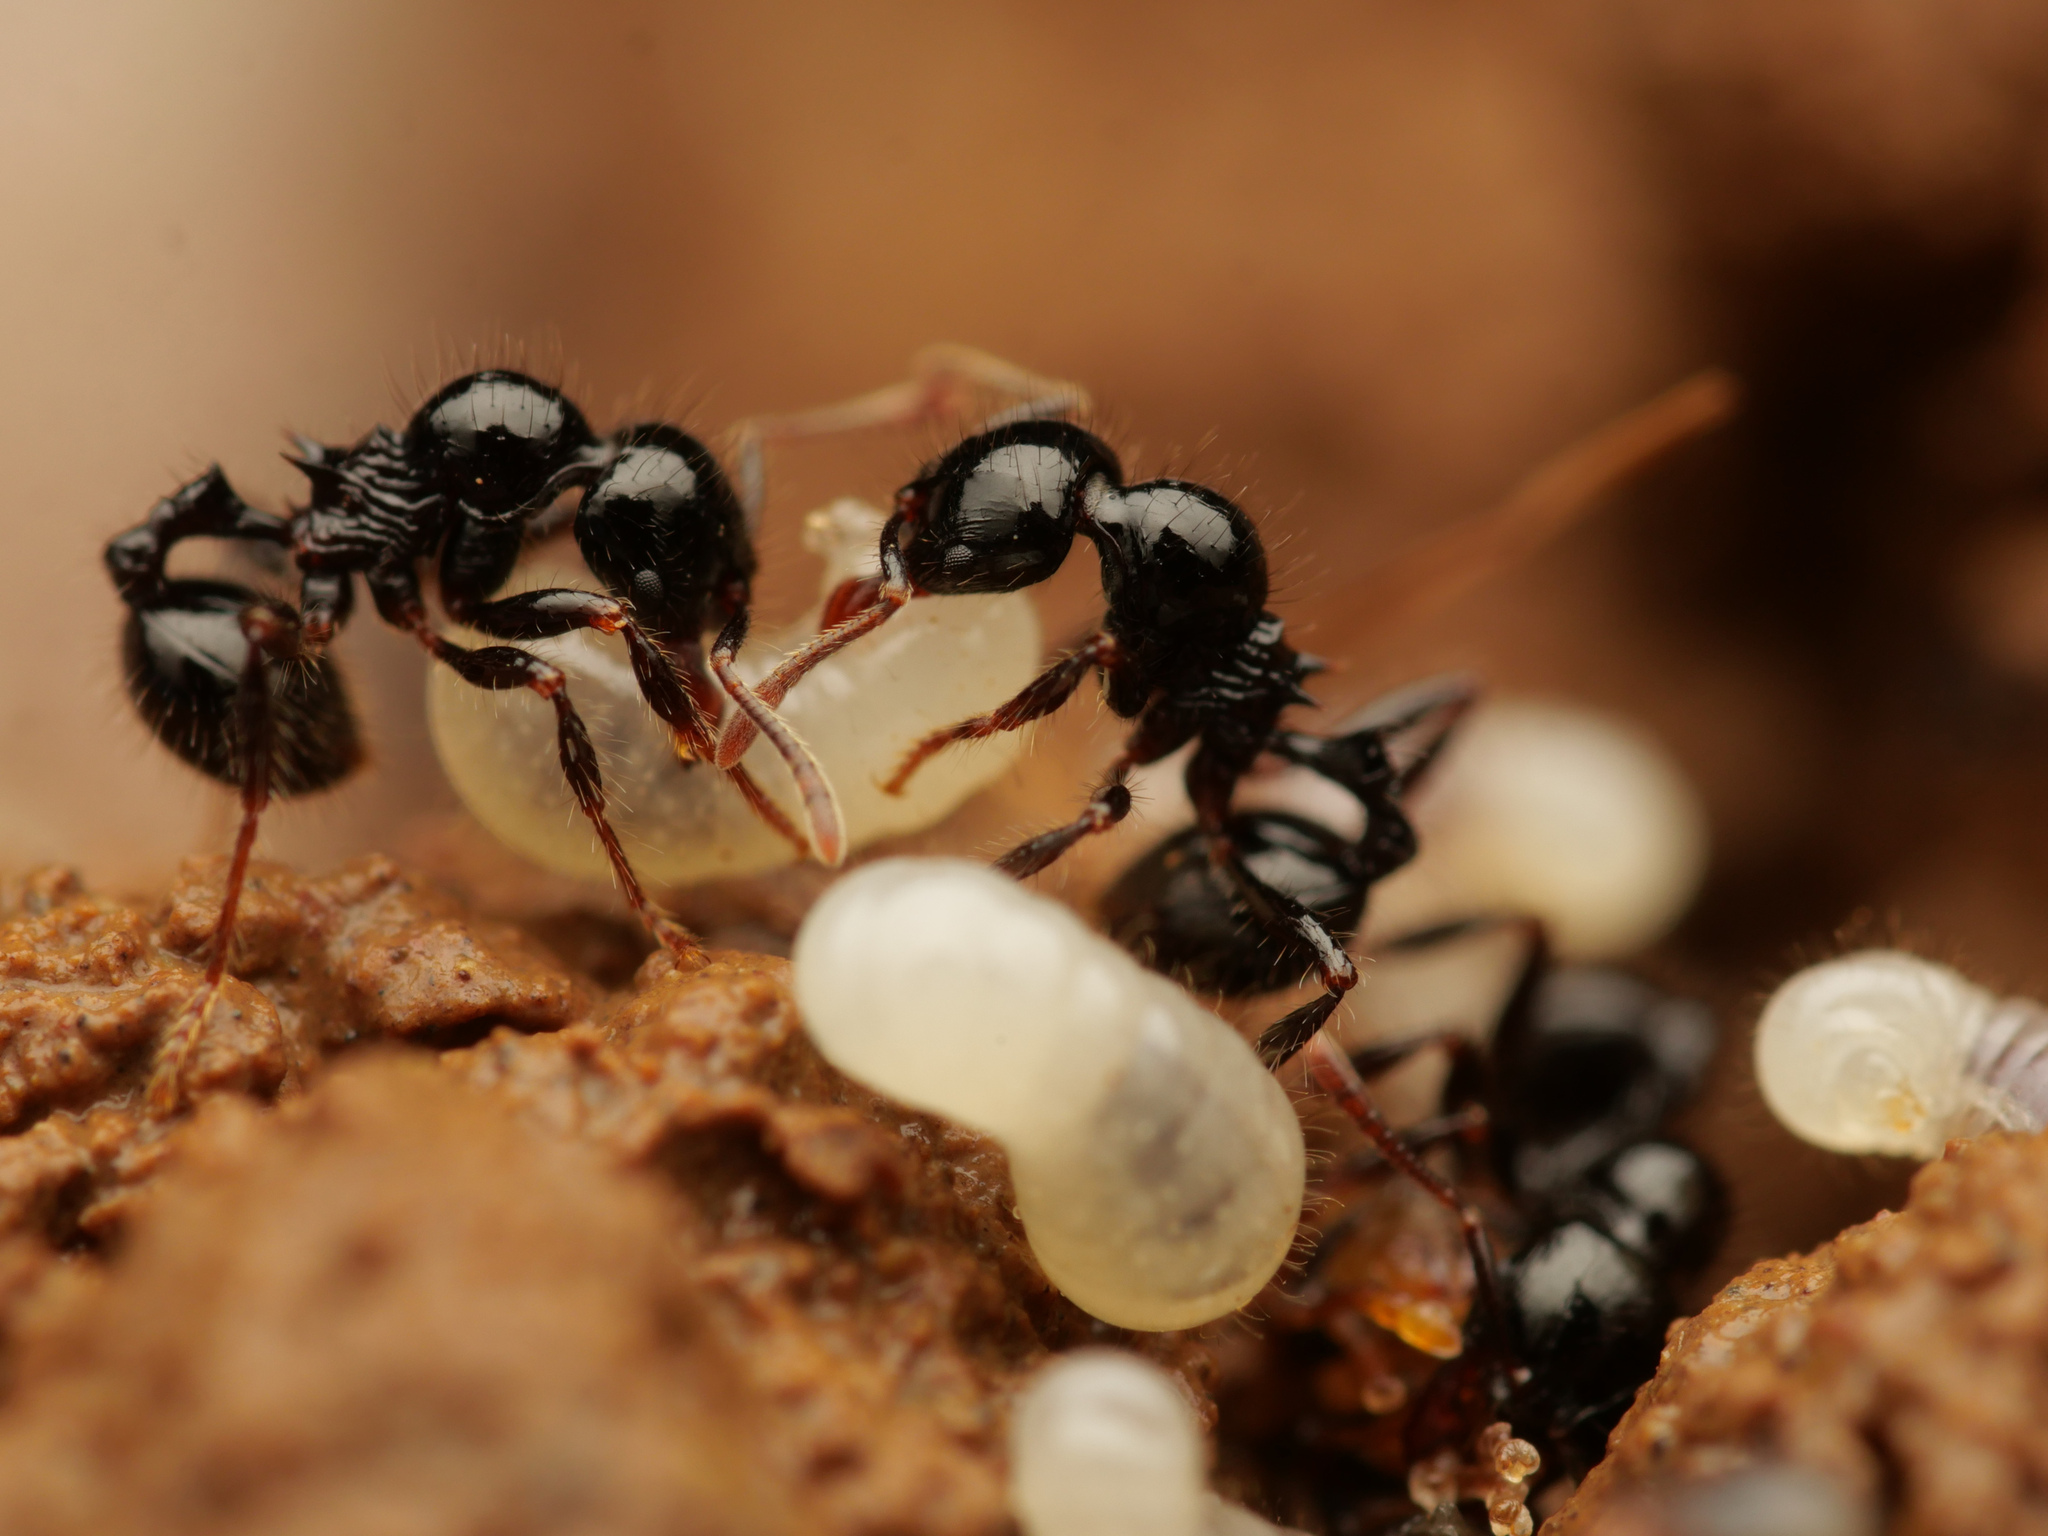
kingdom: Animalia
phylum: Arthropoda
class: Insecta
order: Hymenoptera
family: Formicidae
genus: Lordomyrma
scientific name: Lordomyrma
